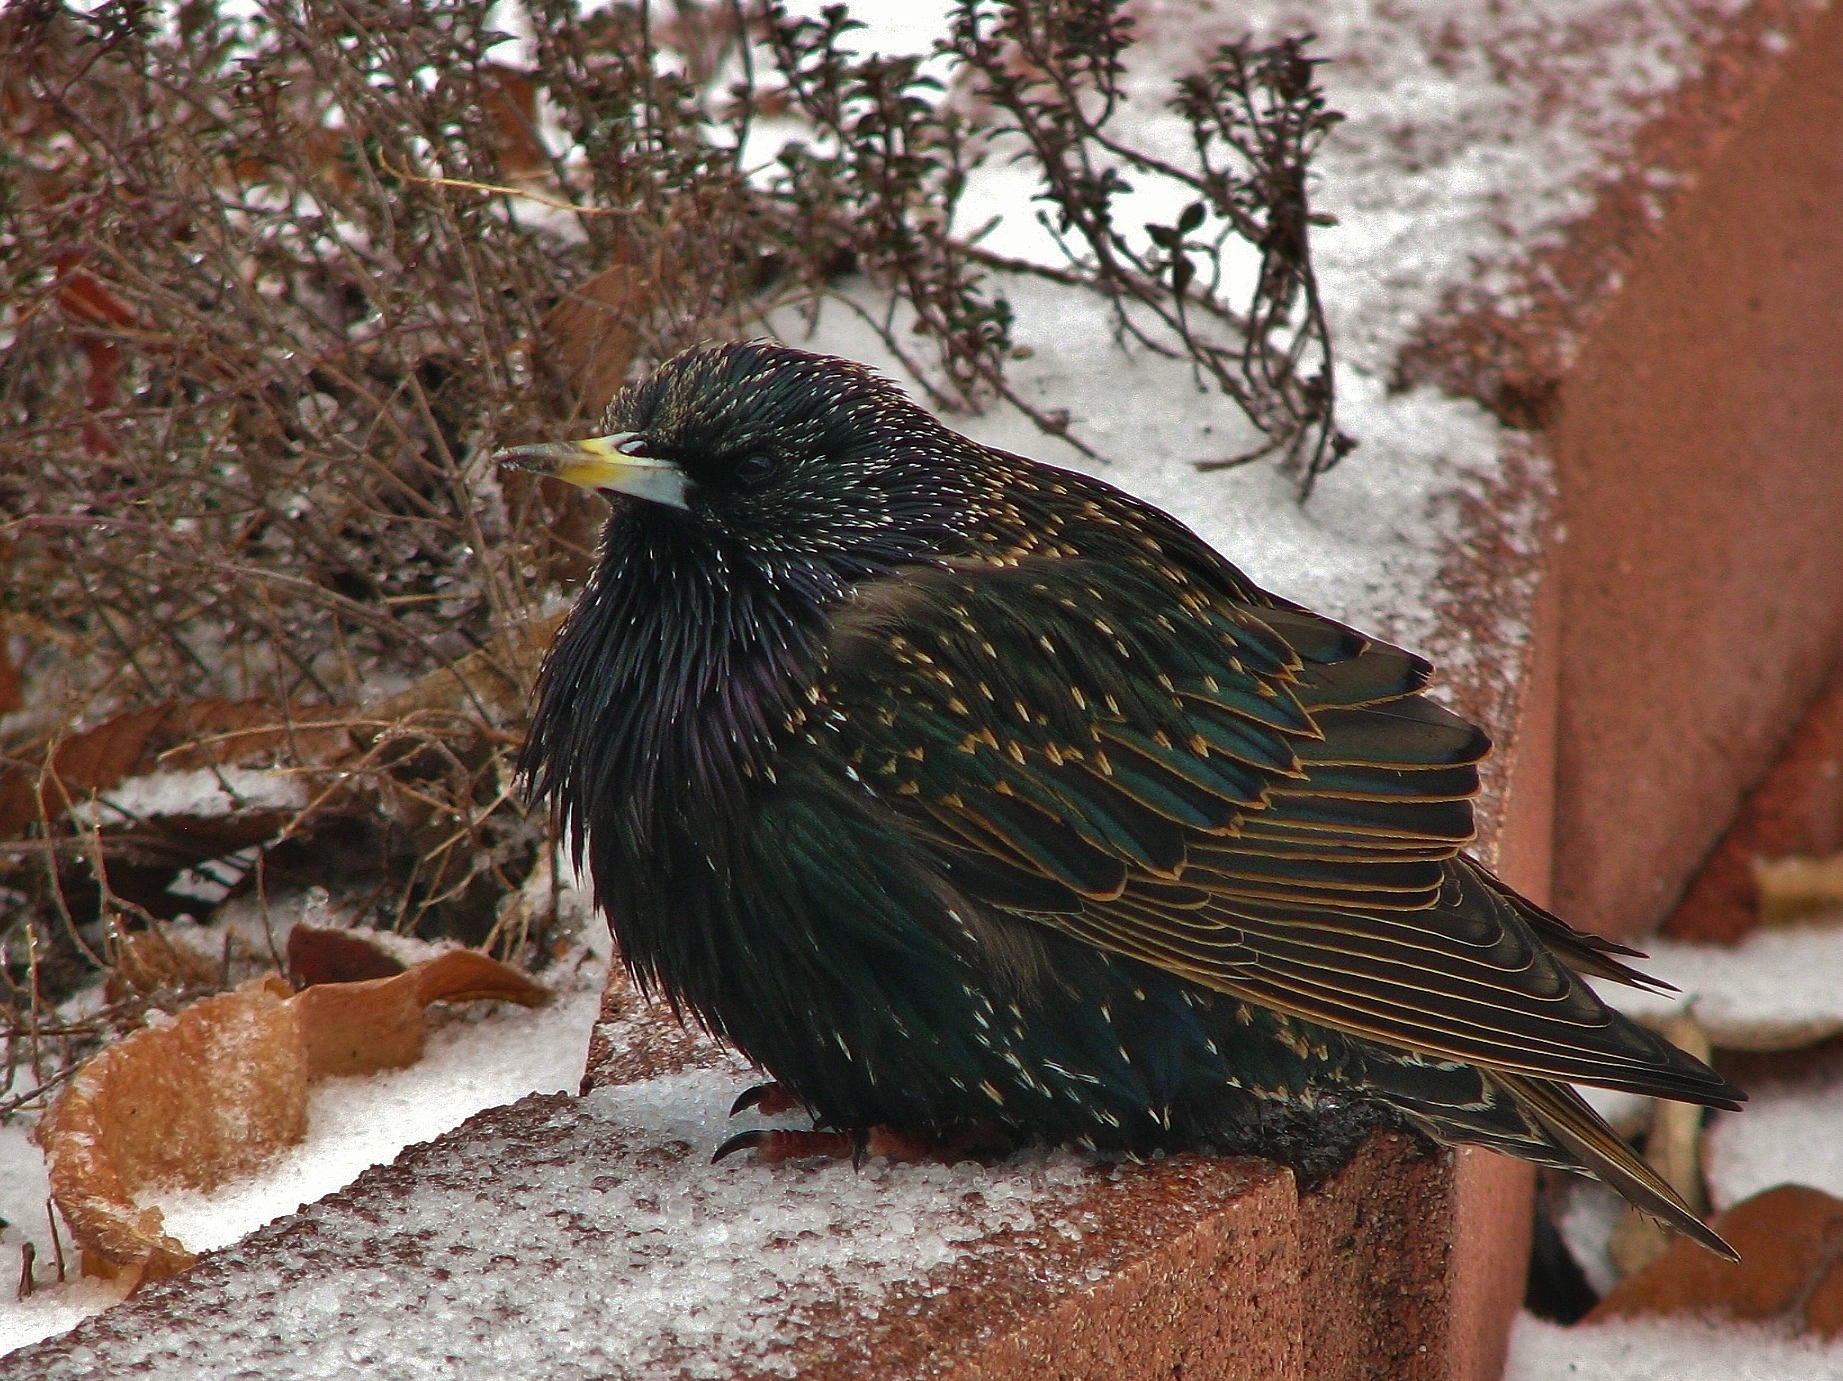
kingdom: Animalia
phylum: Chordata
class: Aves
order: Passeriformes
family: Sturnidae
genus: Sturnus
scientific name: Sturnus vulgaris
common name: Common starling
